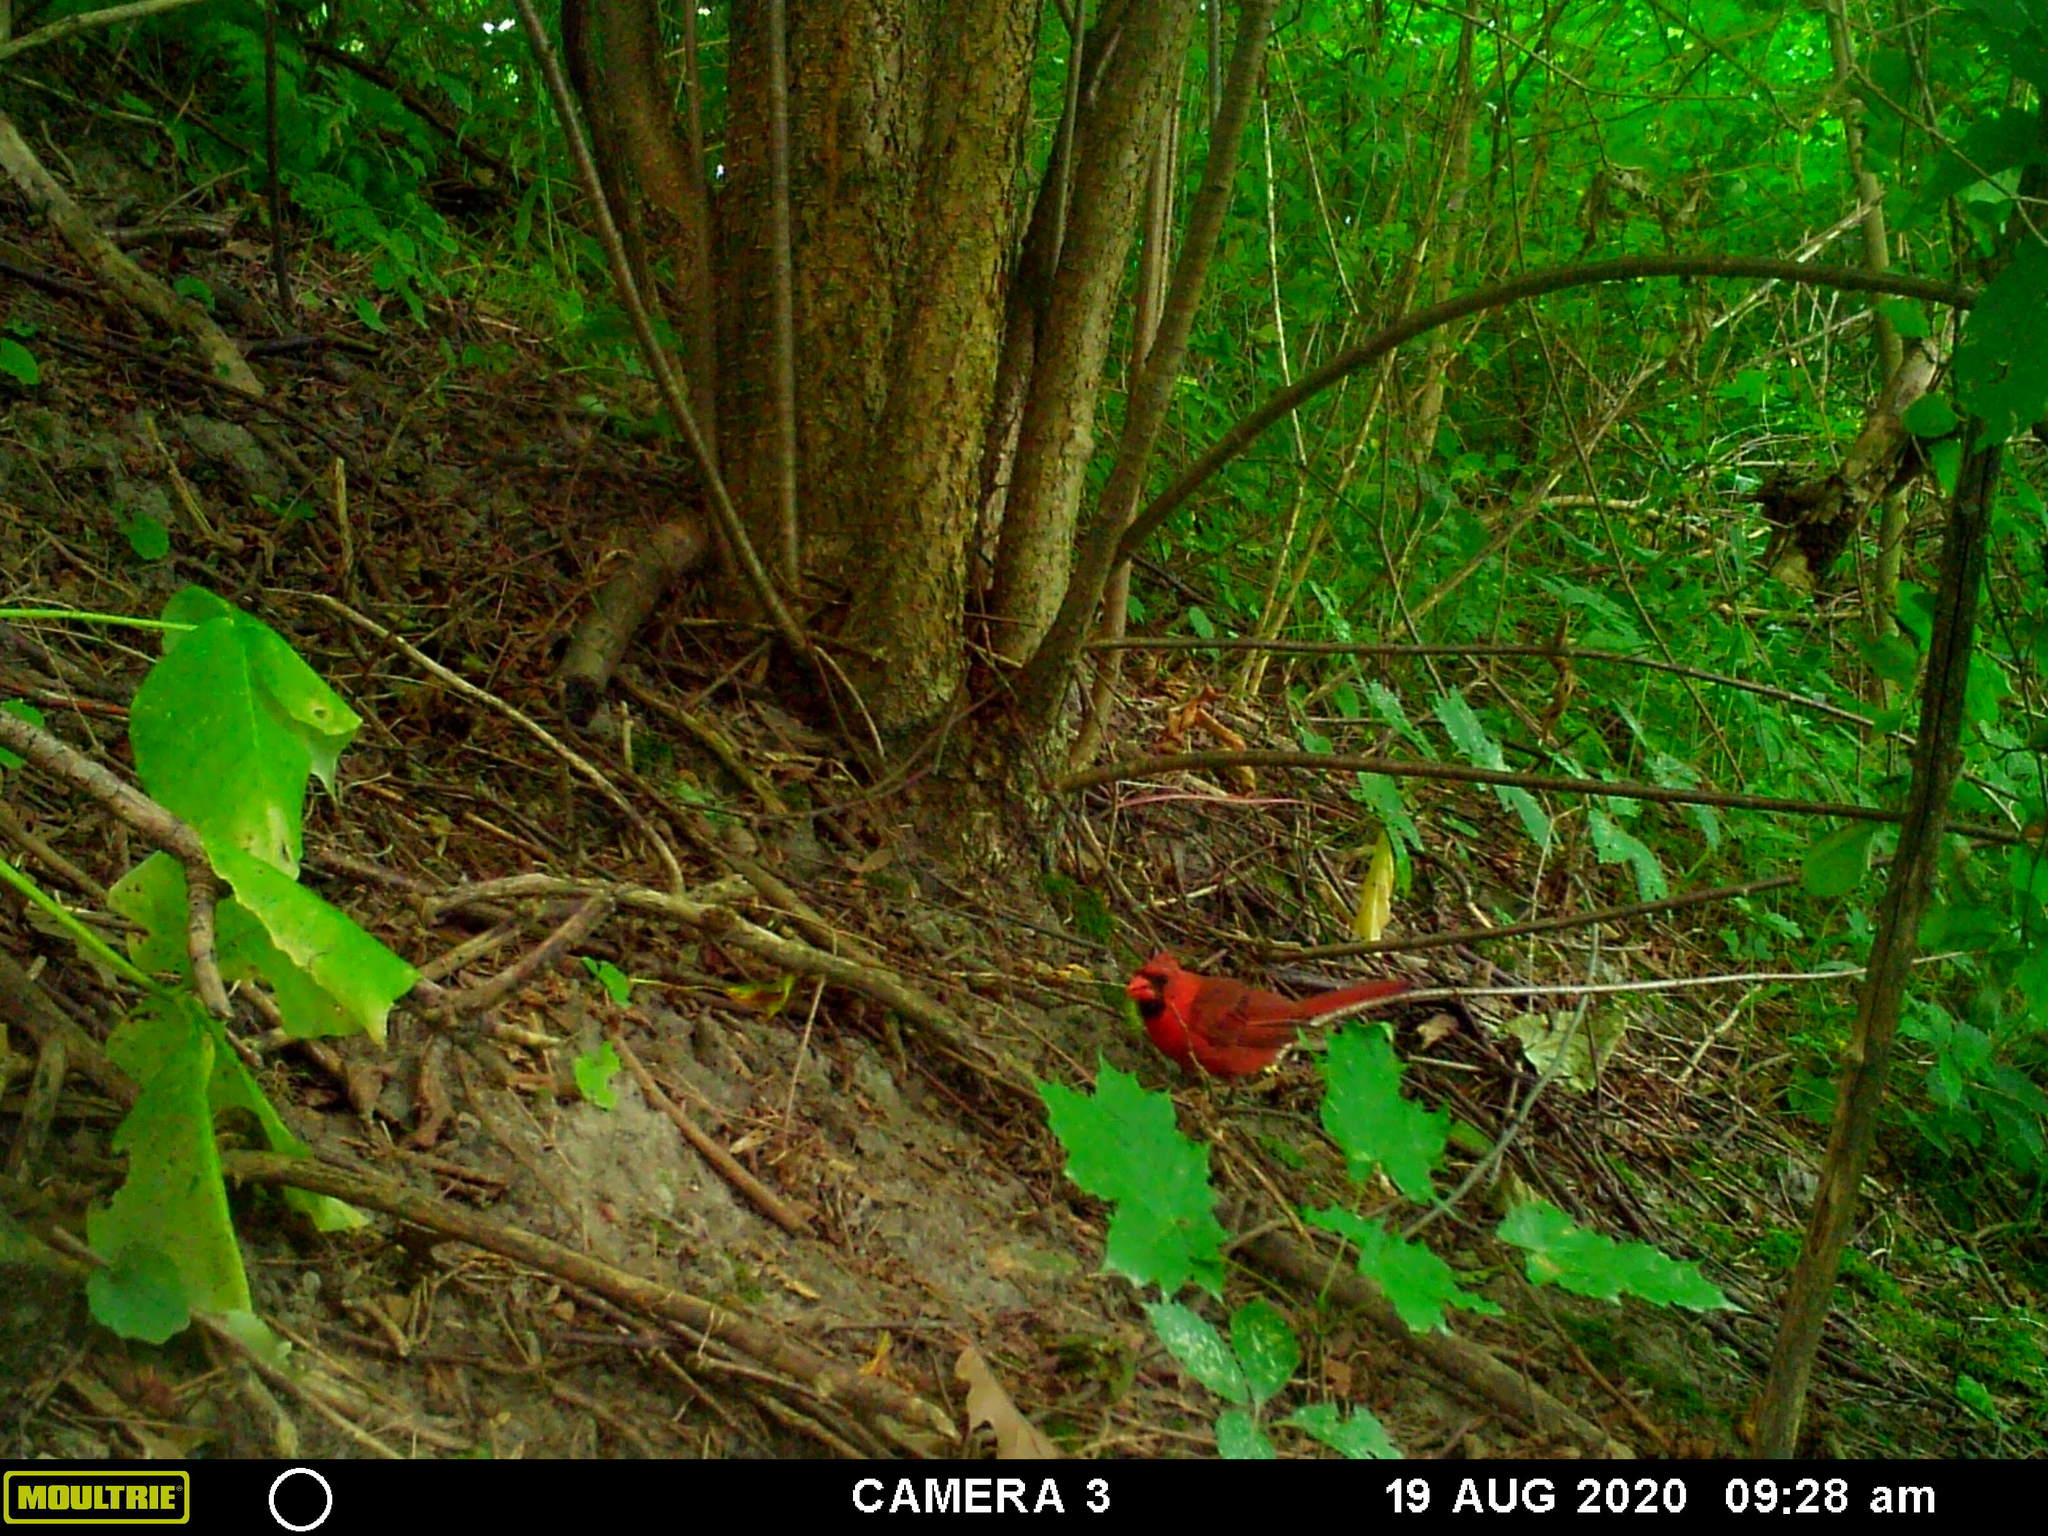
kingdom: Animalia
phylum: Chordata
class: Aves
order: Passeriformes
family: Cardinalidae
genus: Cardinalis
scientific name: Cardinalis cardinalis
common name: Northern cardinal
